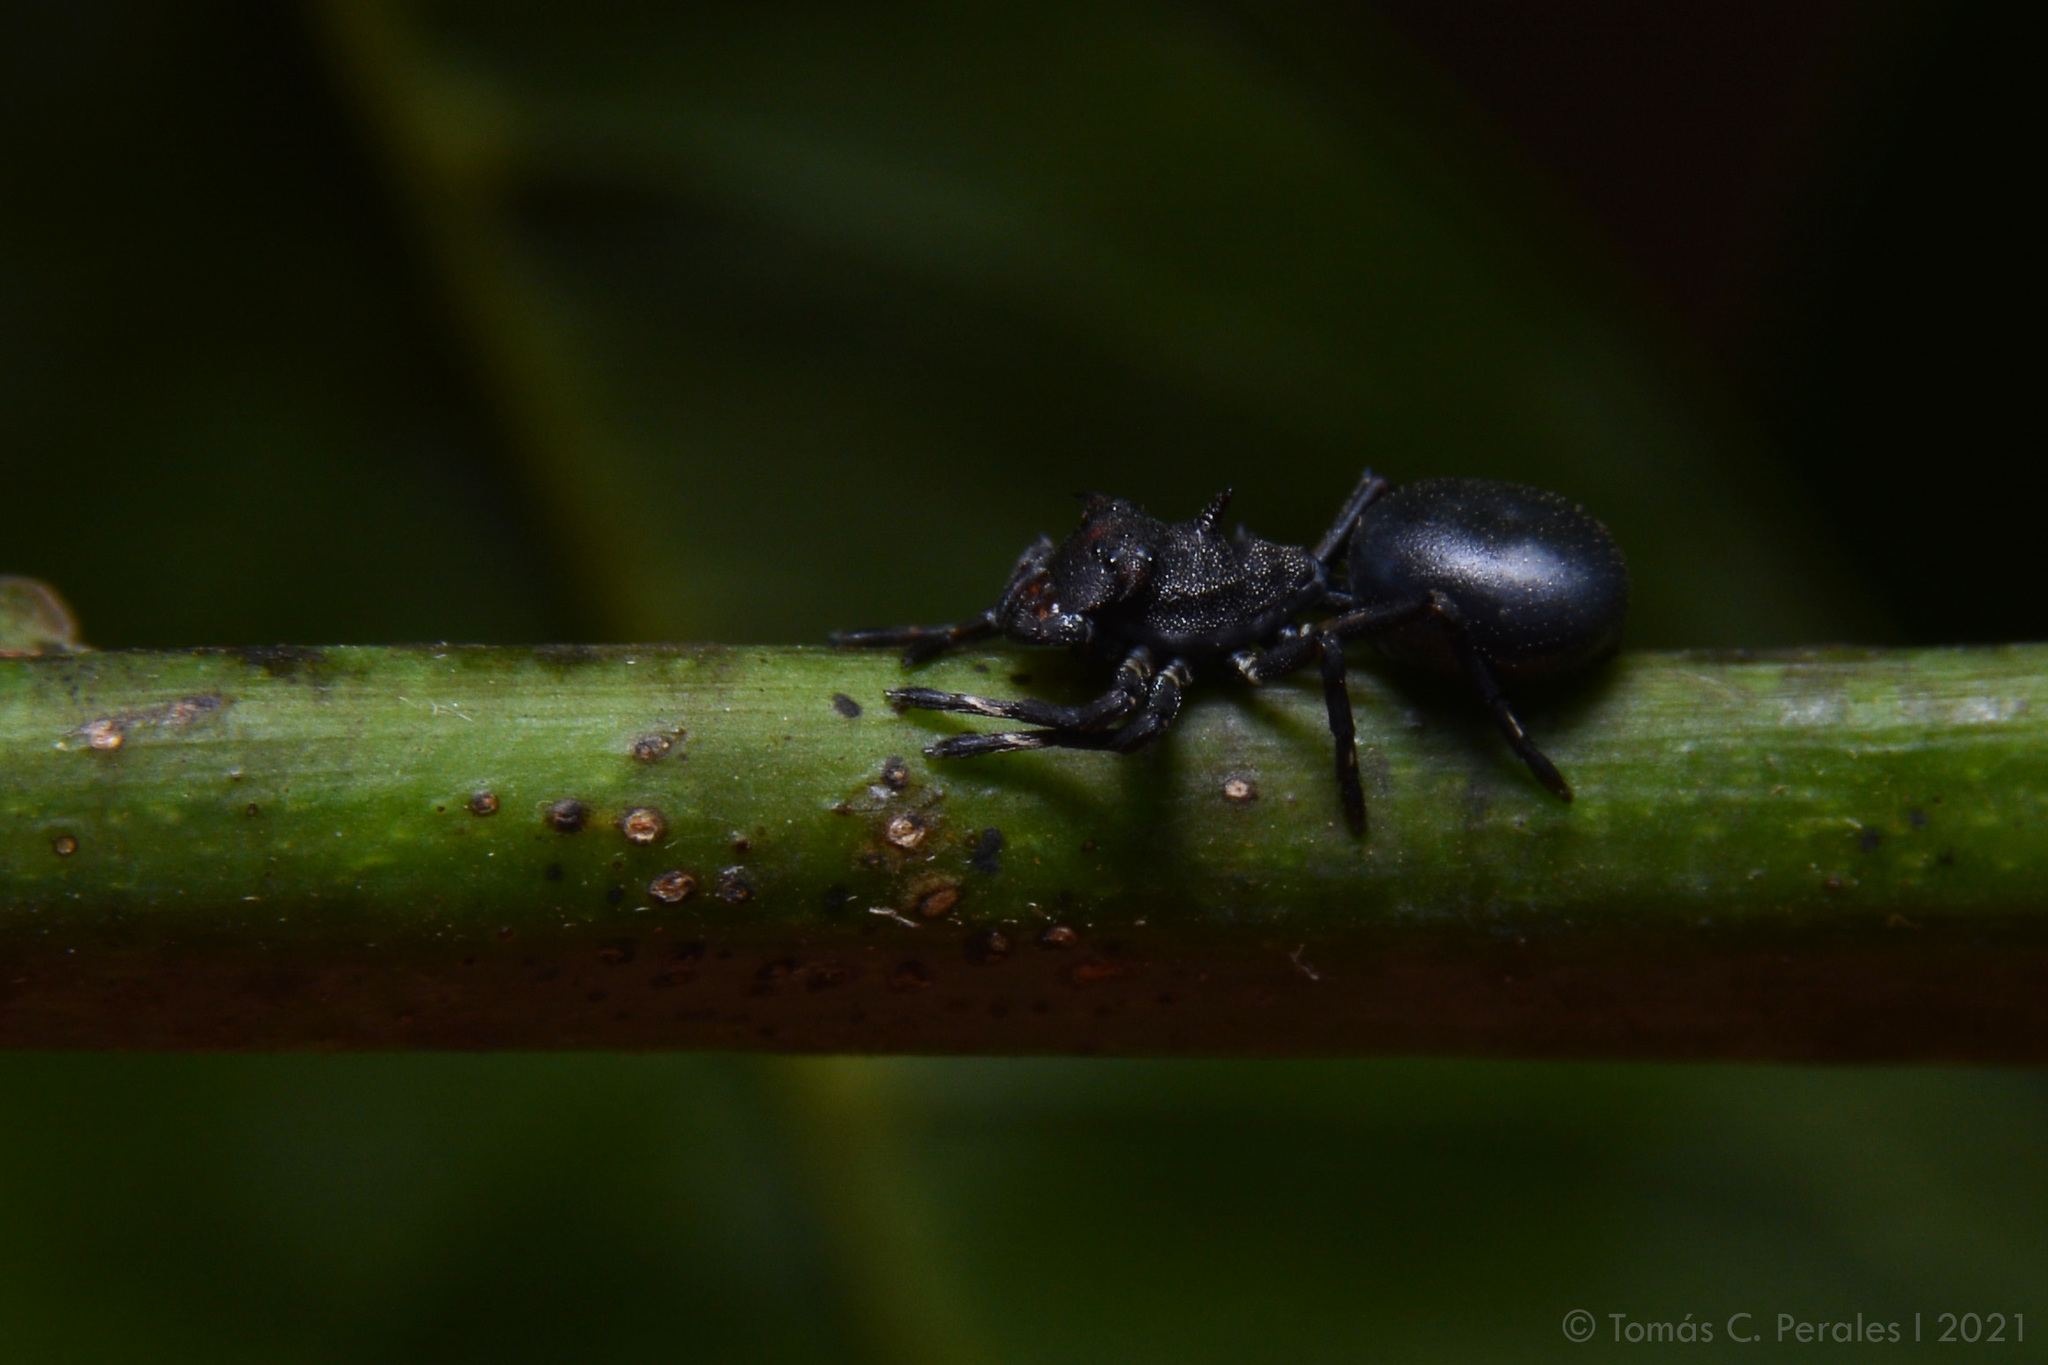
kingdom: Animalia
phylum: Arthropoda
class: Arachnida
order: Araneae
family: Thomisidae
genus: Aphantochilus
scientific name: Aphantochilus rogersi
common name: Crab spiders
